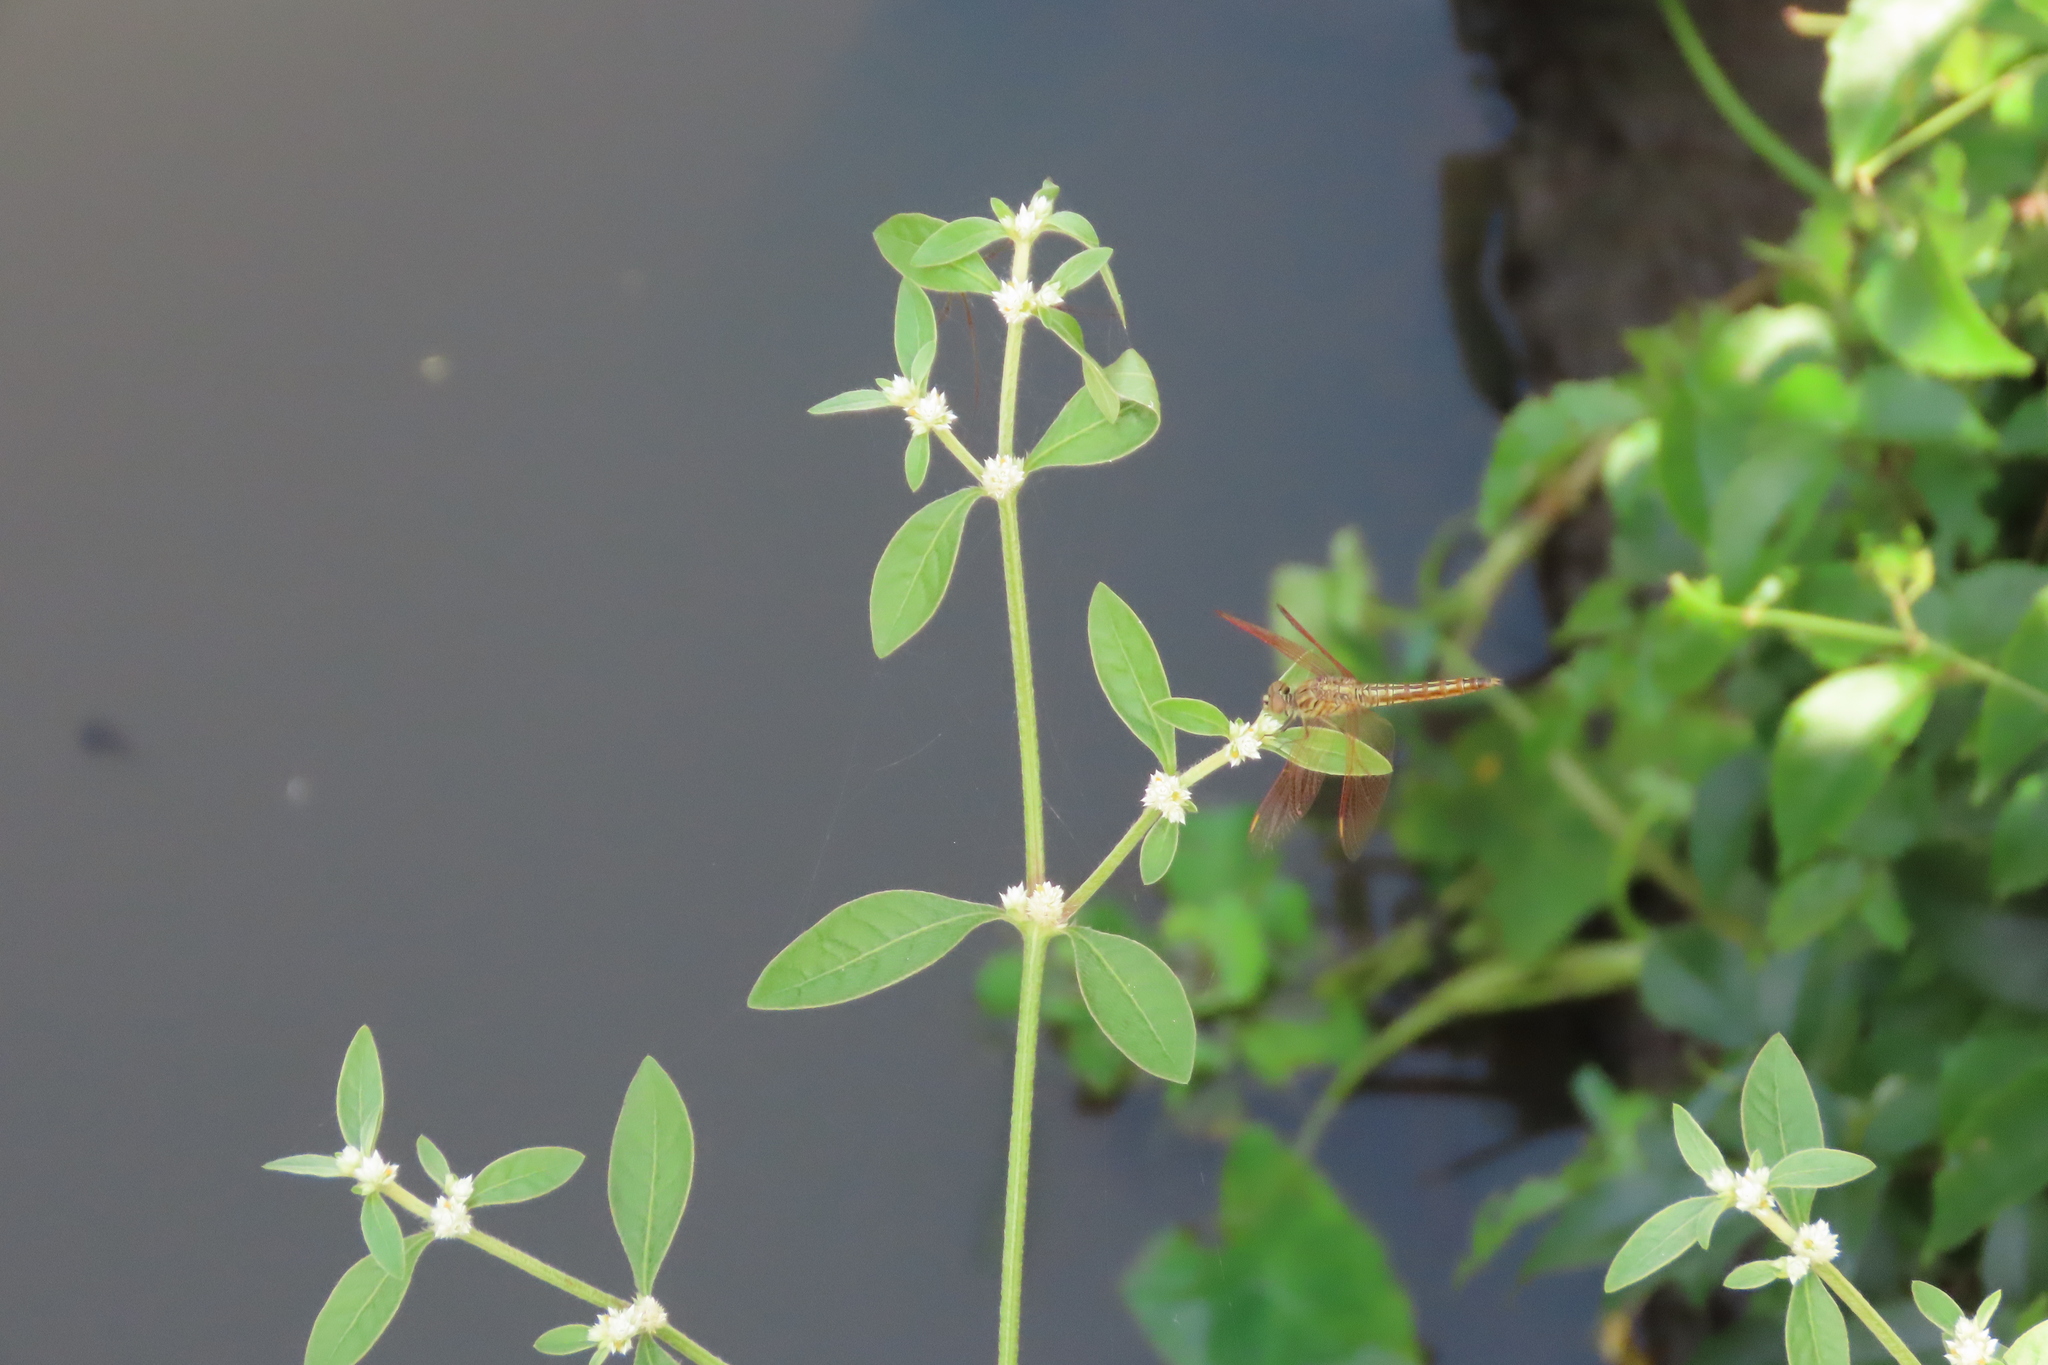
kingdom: Animalia
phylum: Arthropoda
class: Insecta
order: Odonata
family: Libellulidae
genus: Brachythemis
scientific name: Brachythemis contaminata
